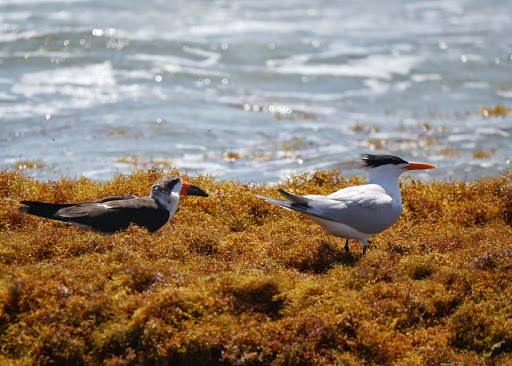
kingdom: Animalia
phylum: Chordata
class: Aves
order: Charadriiformes
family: Laridae
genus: Thalasseus
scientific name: Thalasseus maximus
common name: Royal tern
